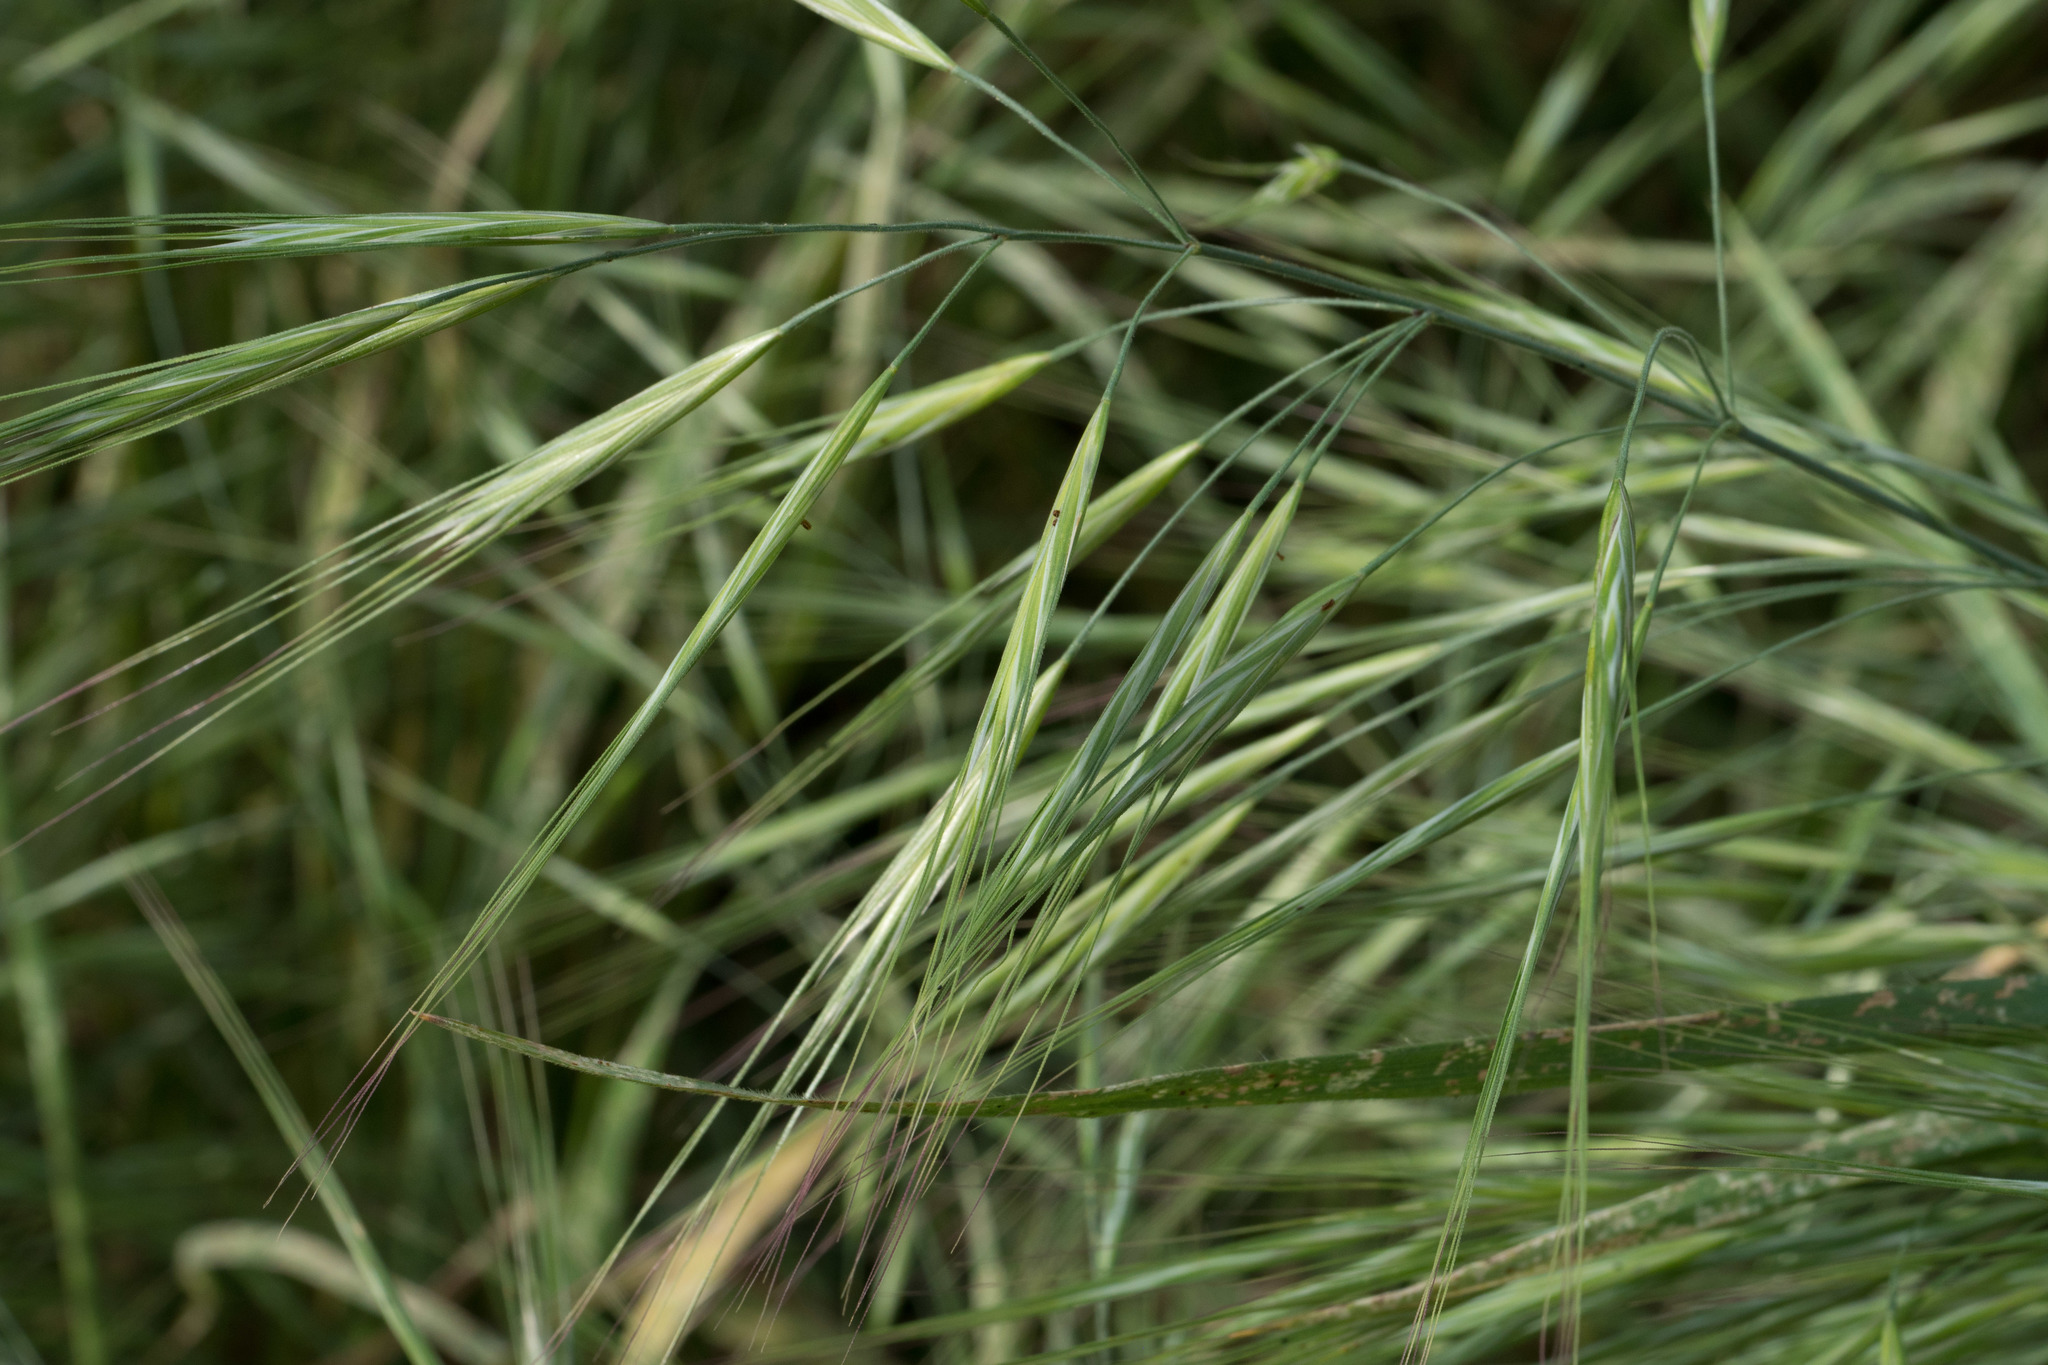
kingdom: Plantae
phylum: Tracheophyta
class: Liliopsida
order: Poales
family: Poaceae
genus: Bromus
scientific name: Bromus diandrus
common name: Ripgut brome
